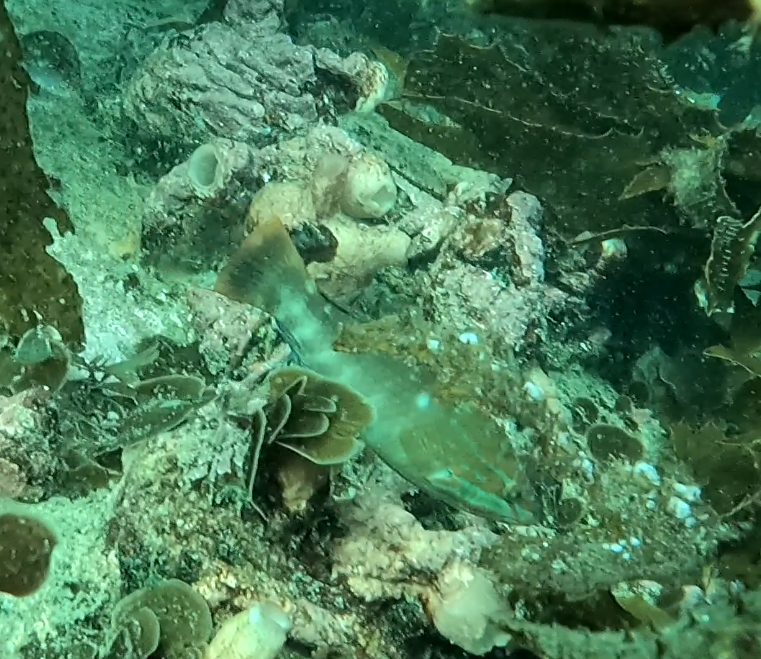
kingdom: Animalia
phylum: Chordata
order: Perciformes
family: Labridae
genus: Pseudolabrus
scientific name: Pseudolabrus guentheri
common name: Günther's wrasse
